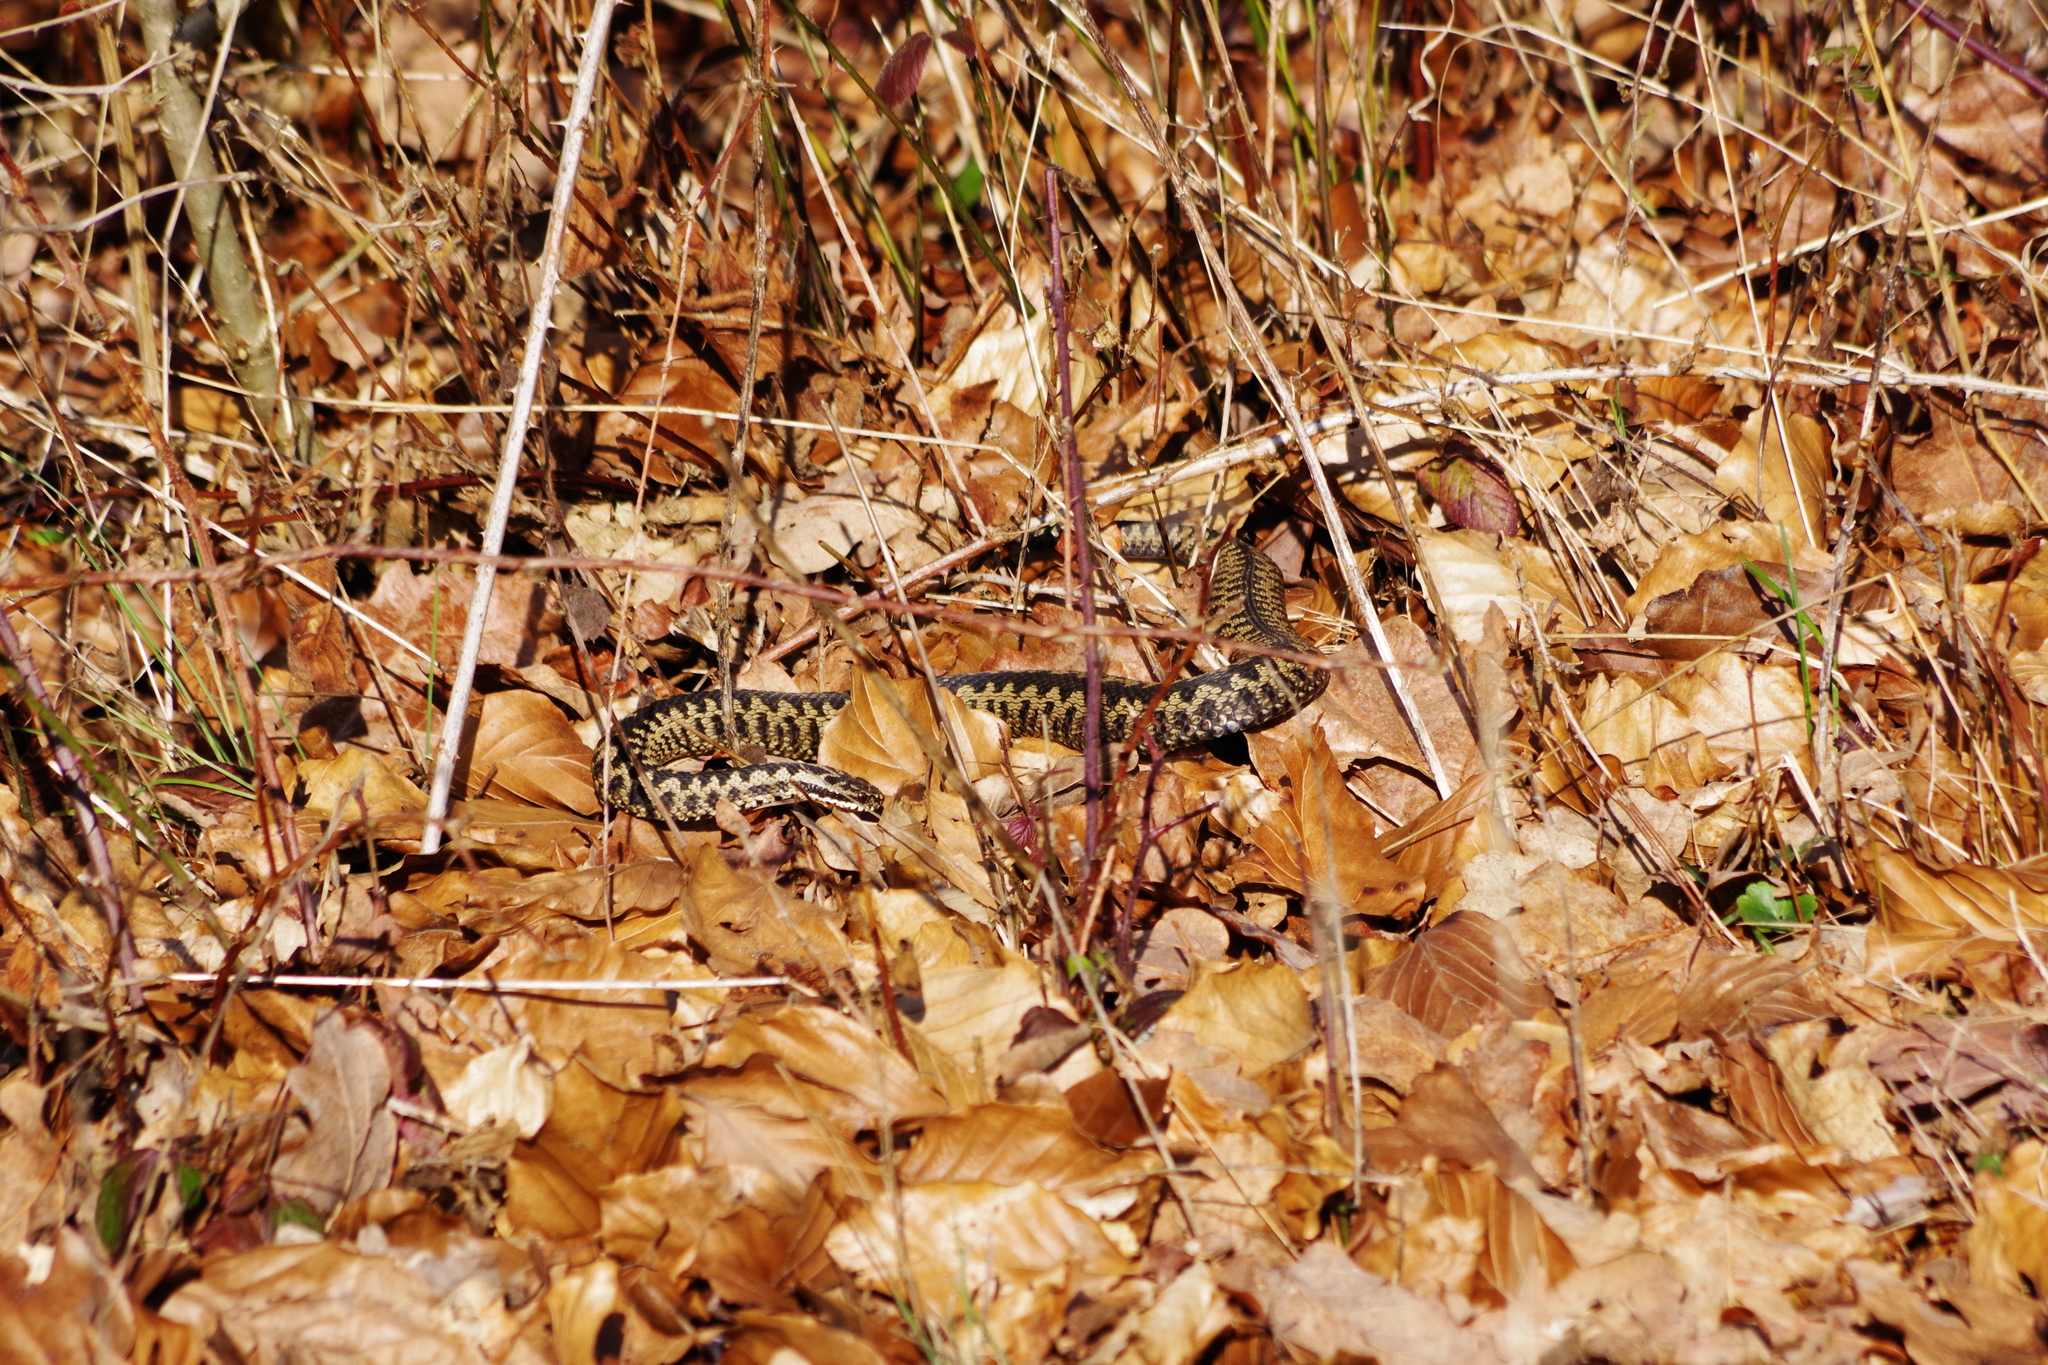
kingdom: Animalia
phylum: Chordata
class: Squamata
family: Viperidae
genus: Vipera
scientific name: Vipera berus
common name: Adder
